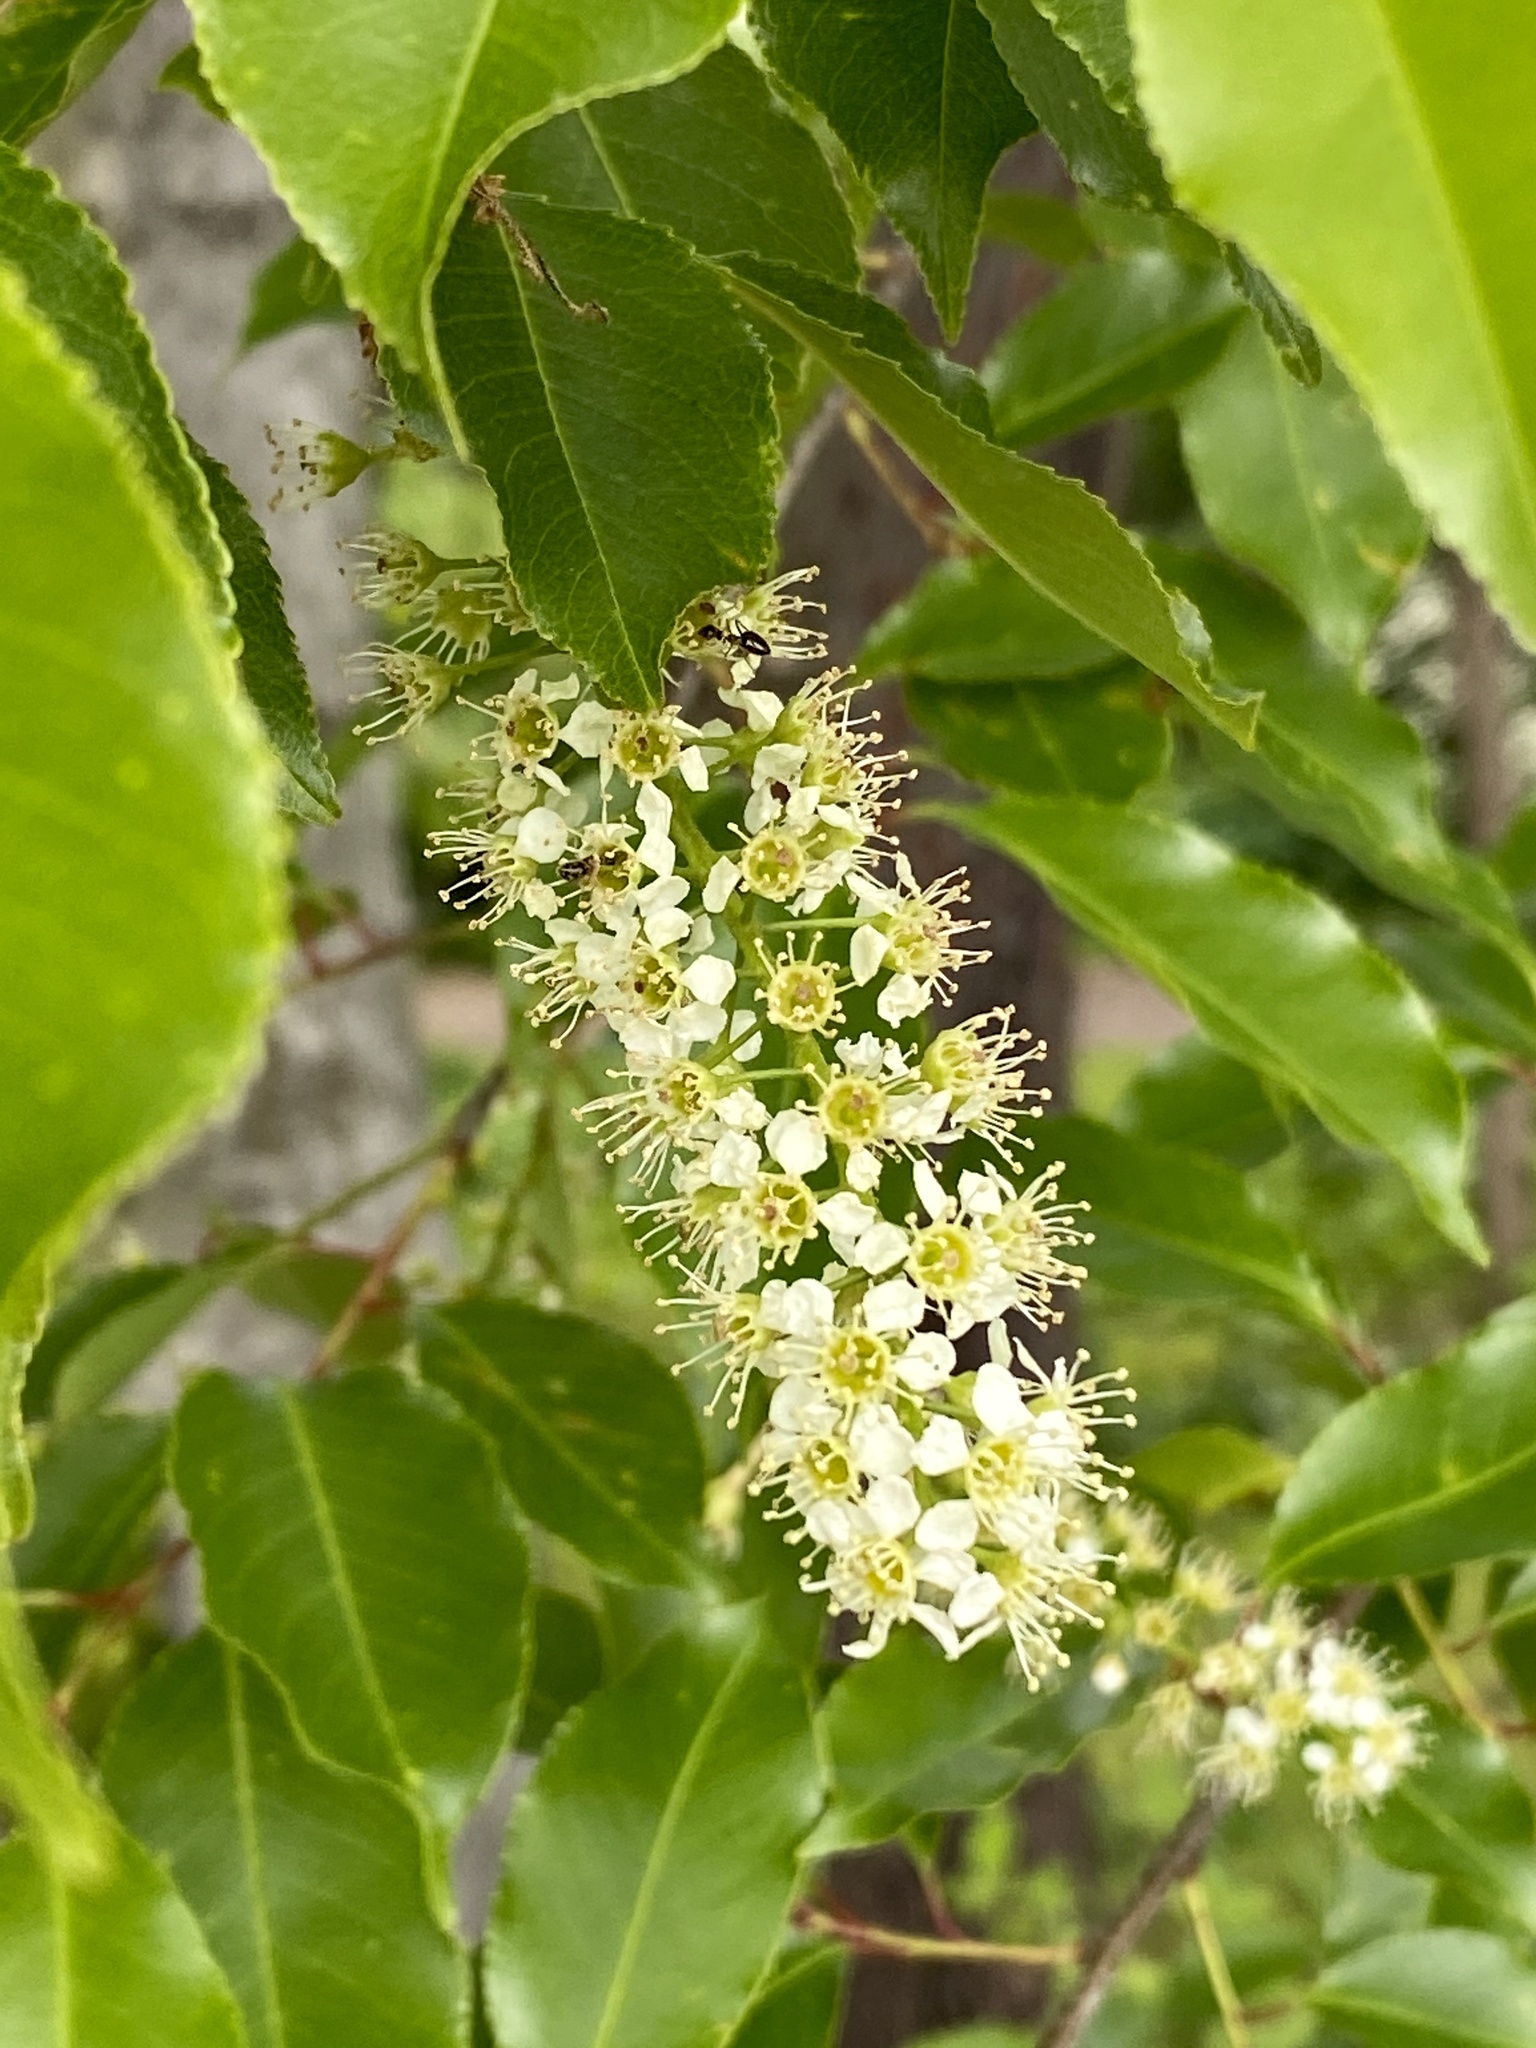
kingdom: Plantae
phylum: Tracheophyta
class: Magnoliopsida
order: Rosales
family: Rosaceae
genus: Prunus
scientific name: Prunus serotina
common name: Black cherry
